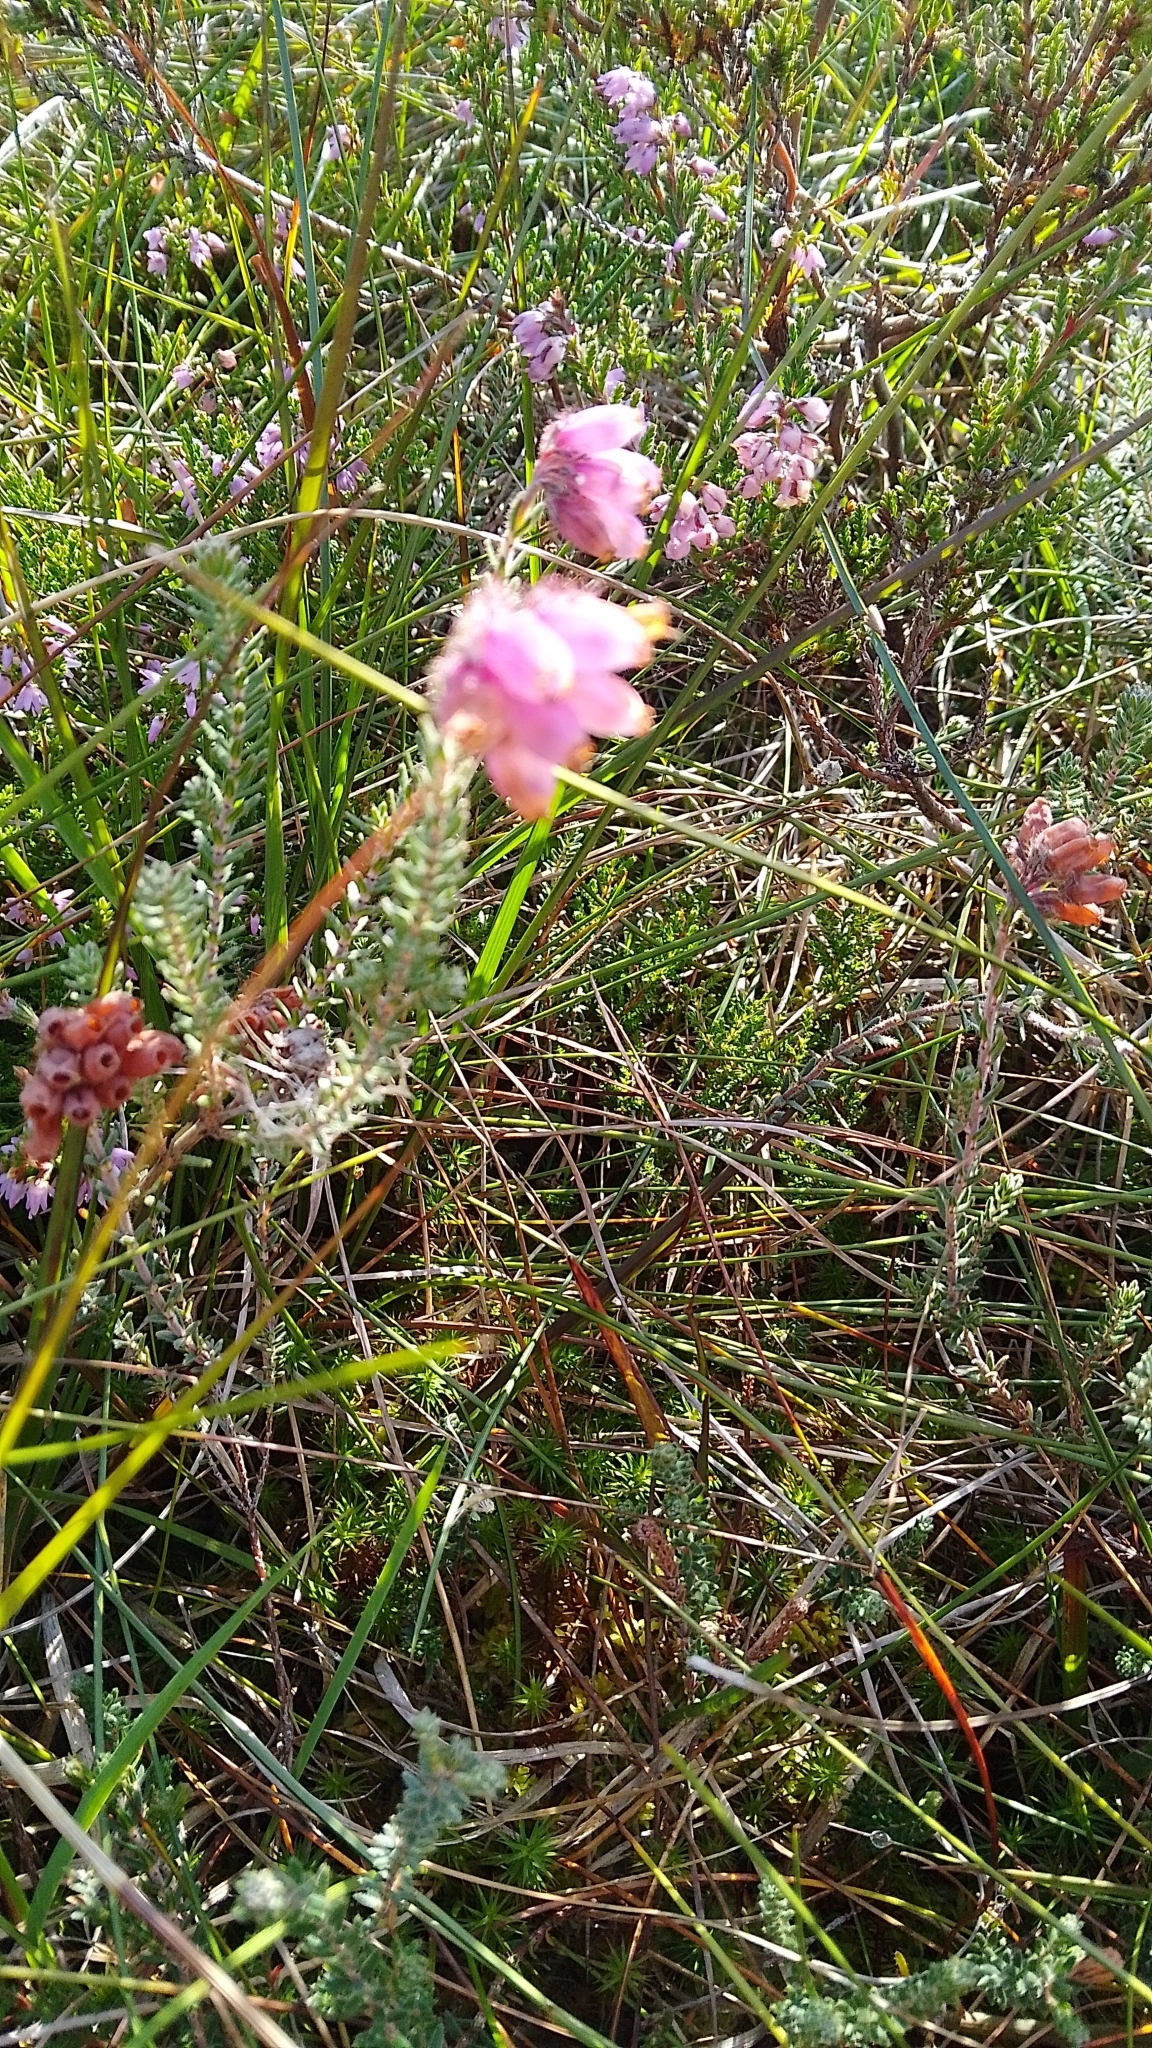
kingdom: Plantae
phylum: Tracheophyta
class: Magnoliopsida
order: Ericales
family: Ericaceae
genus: Erica
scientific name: Erica tetralix
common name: Cross-leaved heath
